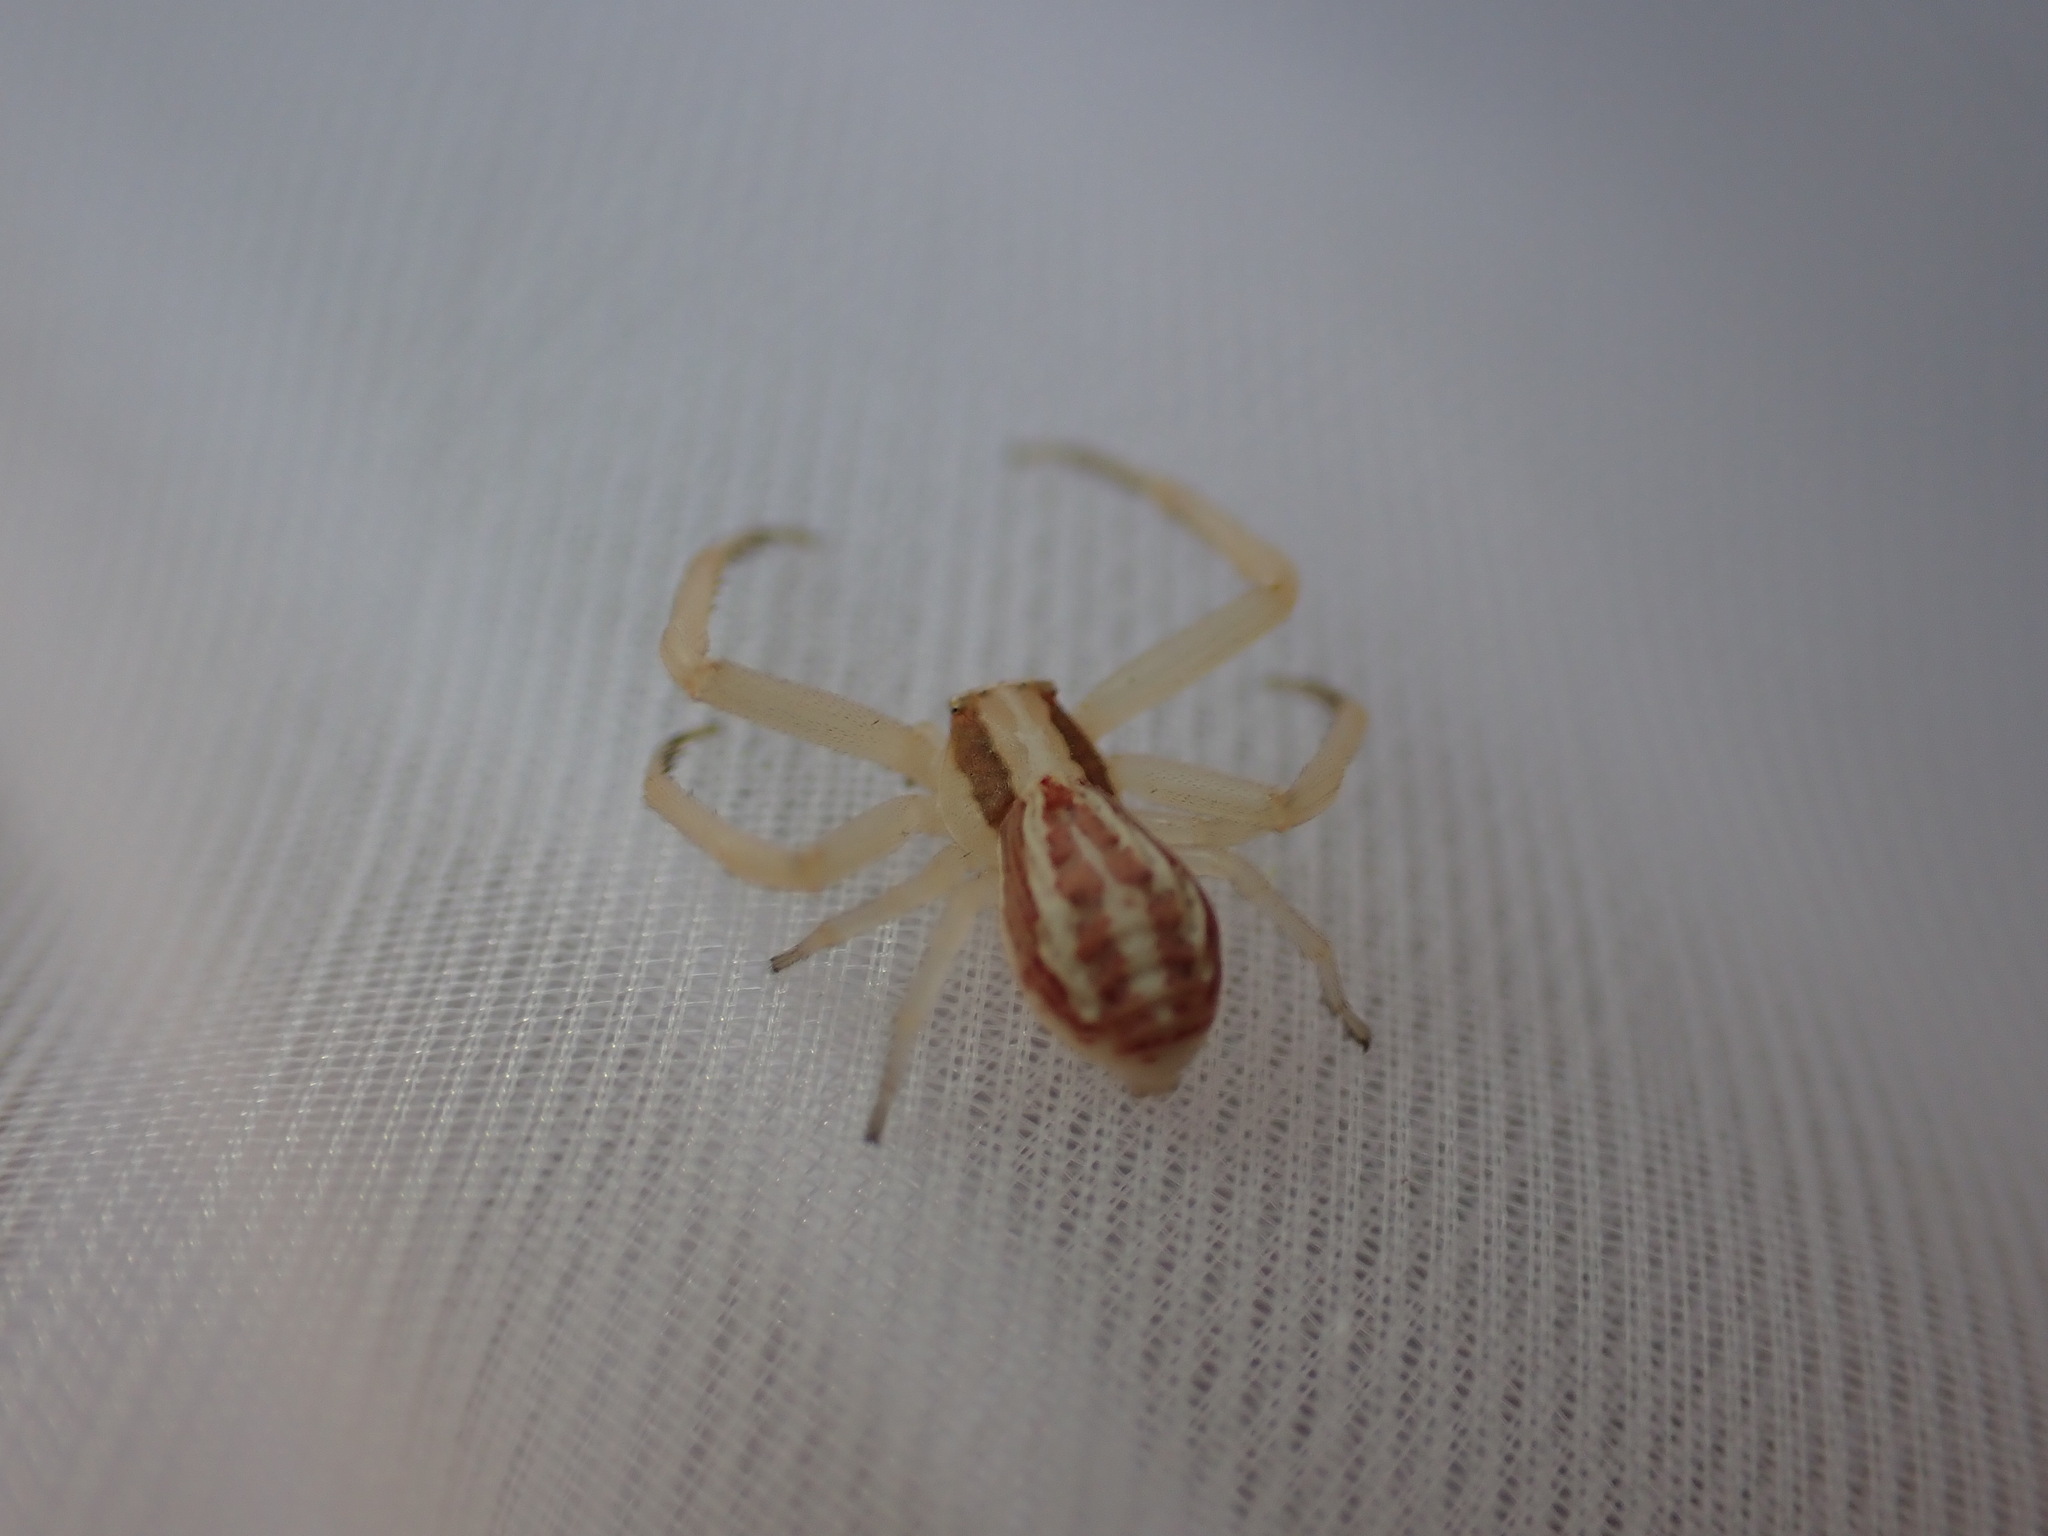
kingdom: Animalia
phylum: Arthropoda
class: Arachnida
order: Araneae
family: Thomisidae
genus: Runcinia
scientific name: Runcinia grammica
